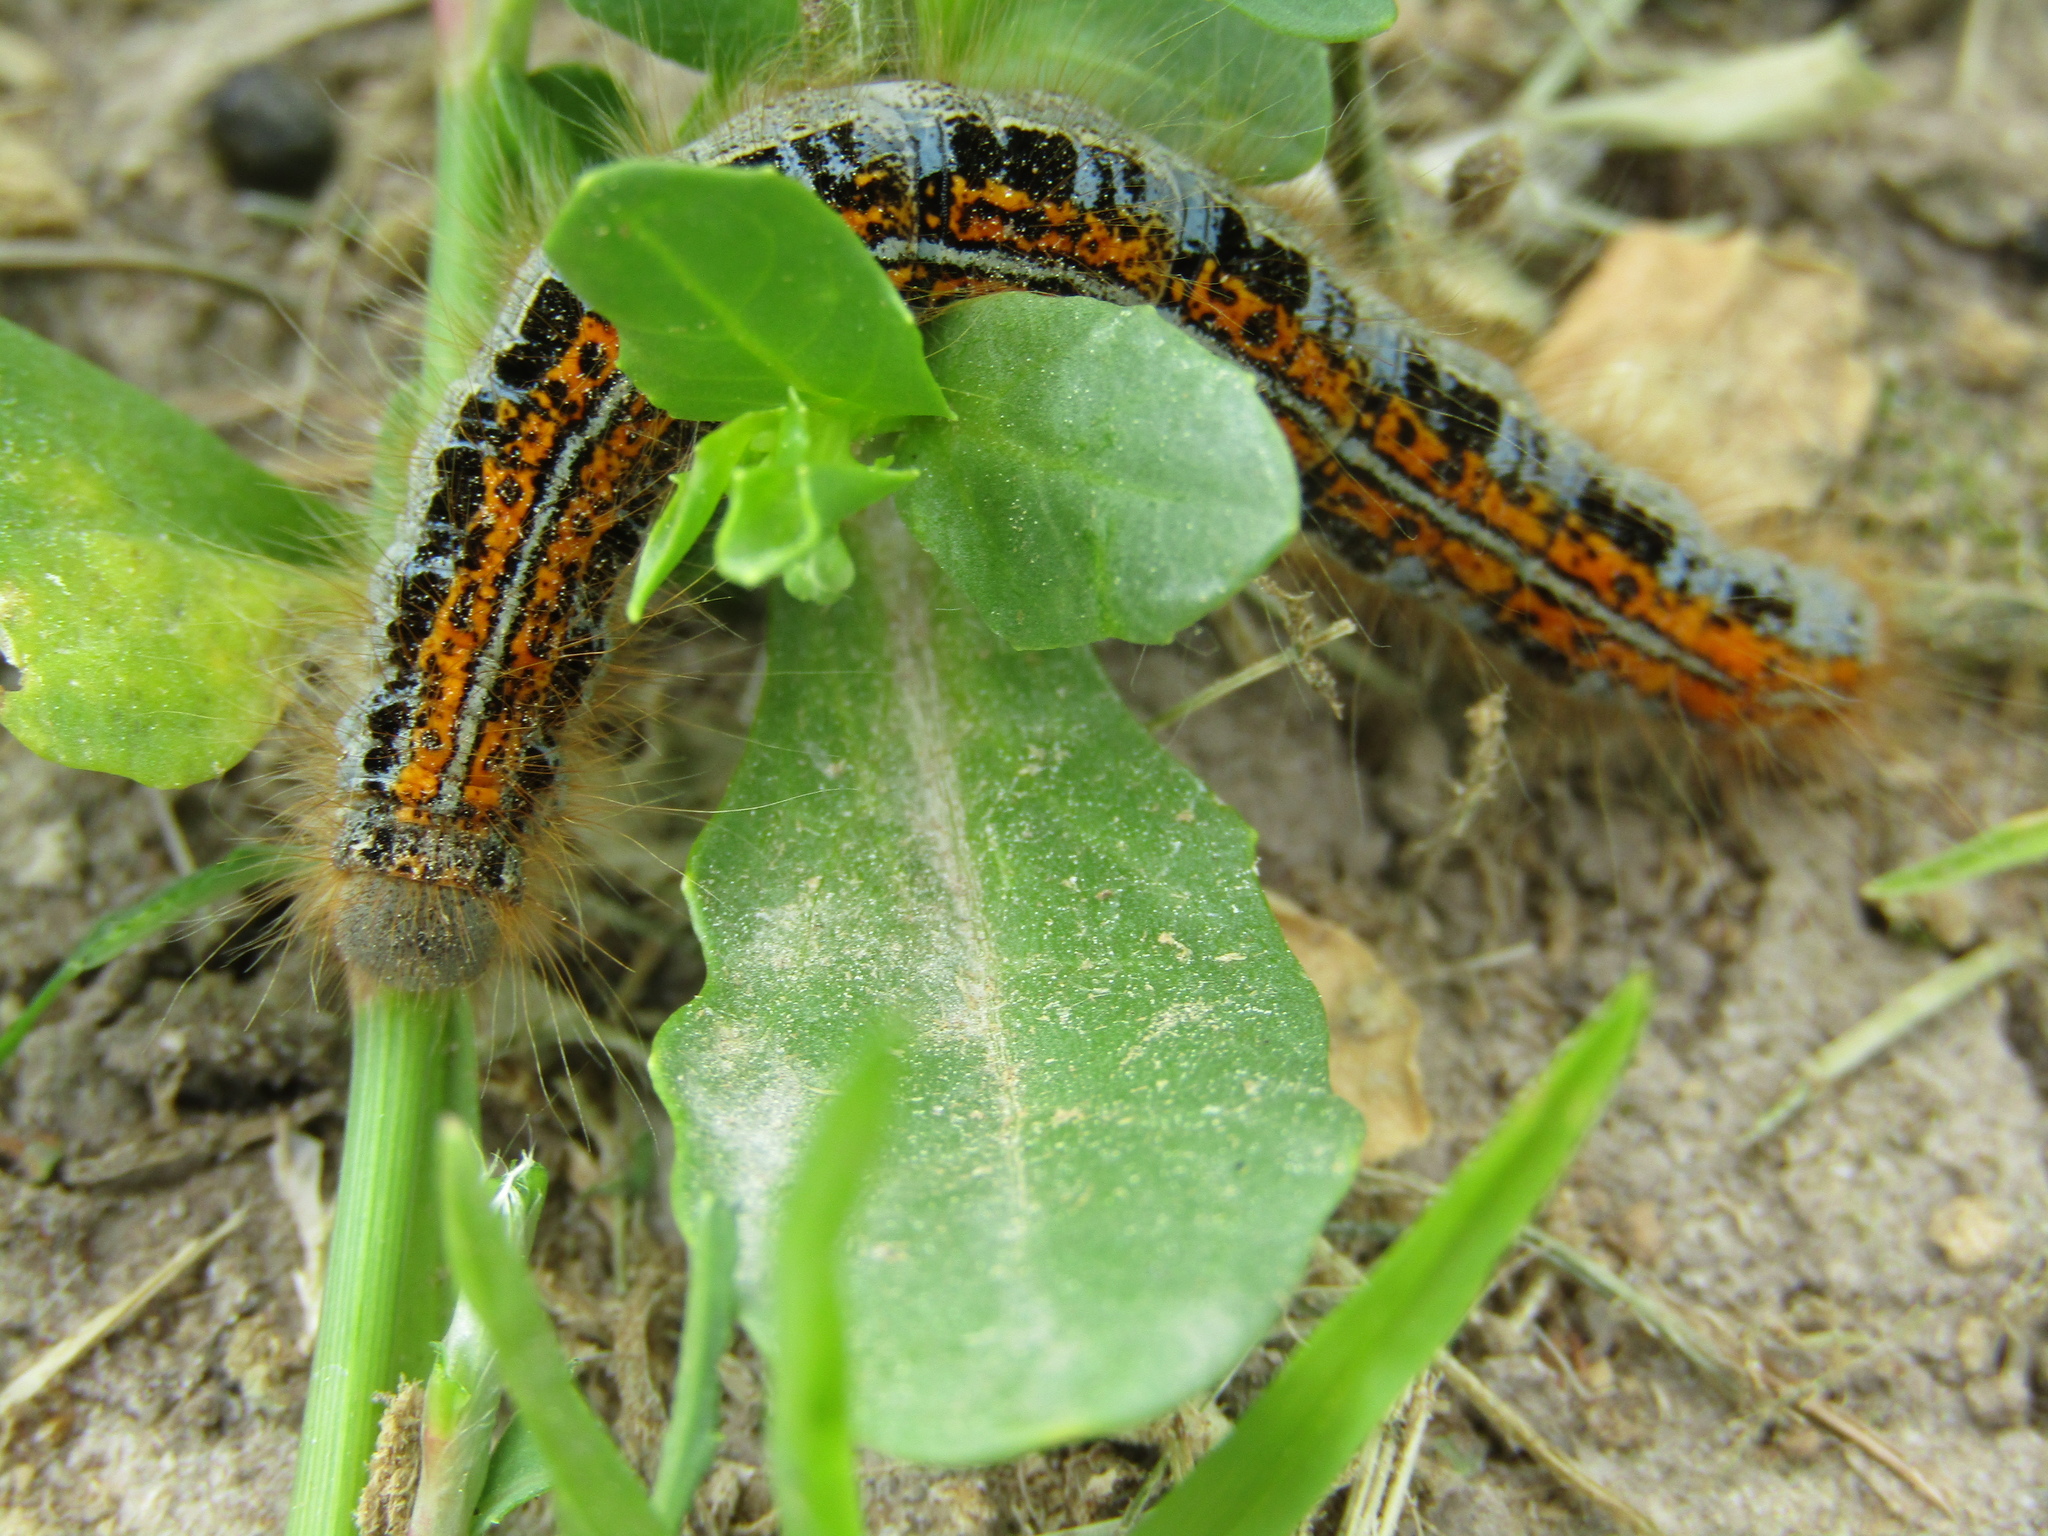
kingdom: Animalia
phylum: Arthropoda
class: Insecta
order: Lepidoptera
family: Lasiocampidae
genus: Malacosoma
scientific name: Malacosoma castrense
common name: Ground lackey
